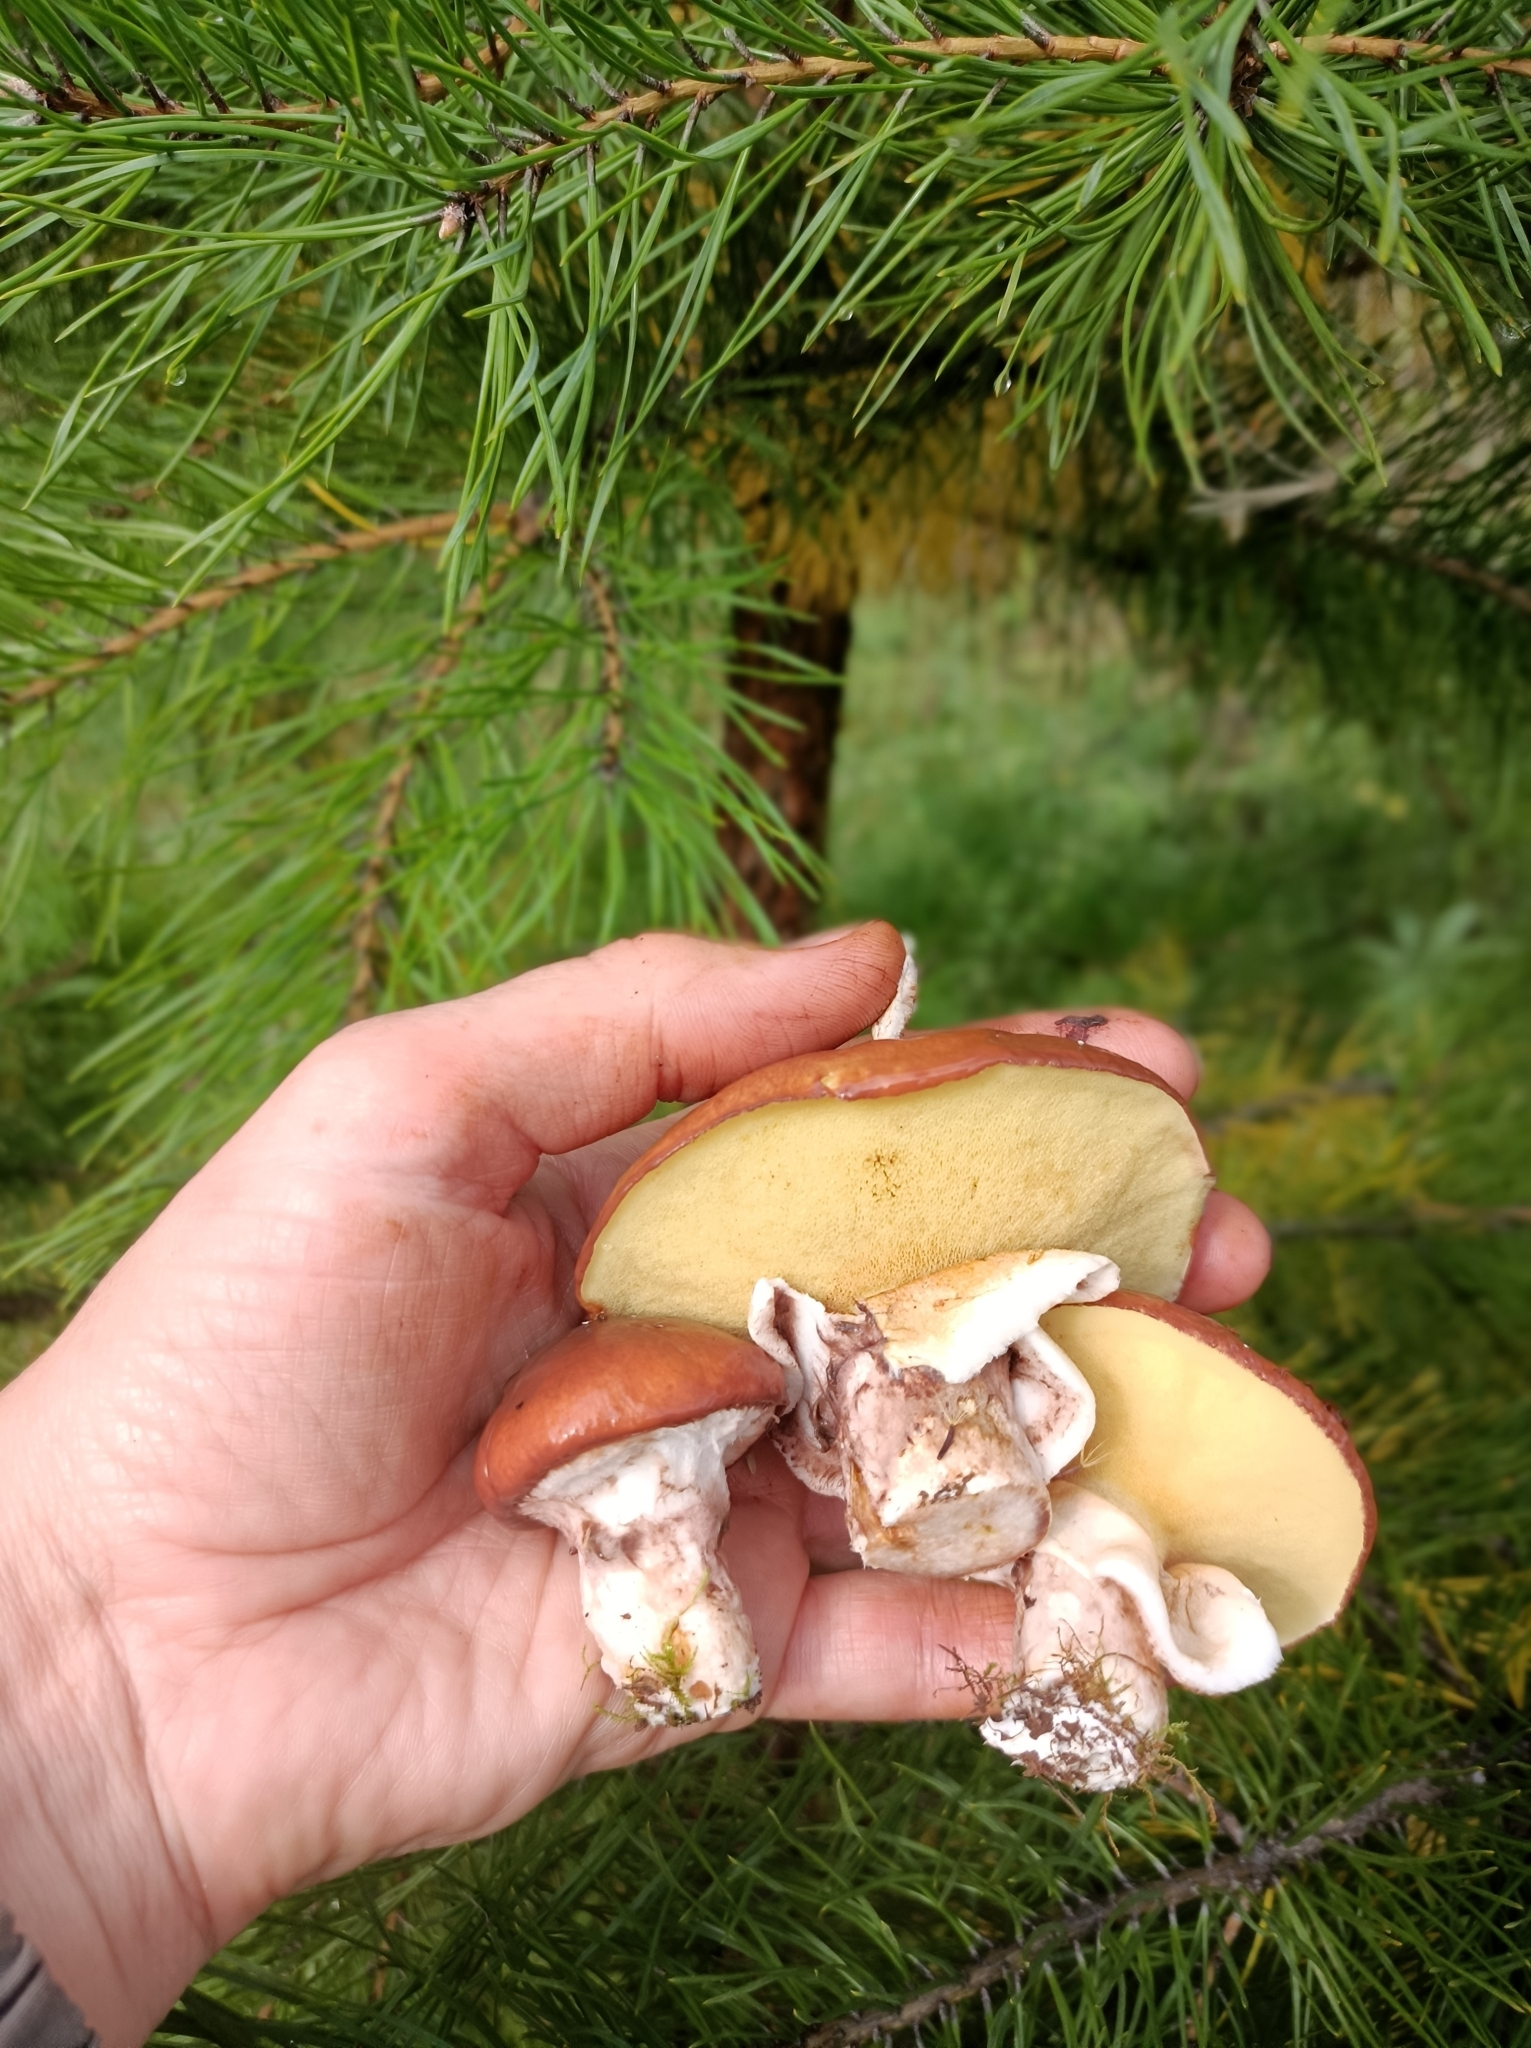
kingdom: Fungi
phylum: Basidiomycota
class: Agaricomycetes
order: Boletales
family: Suillaceae
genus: Suillus
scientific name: Suillus luteus
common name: Slippery jack
